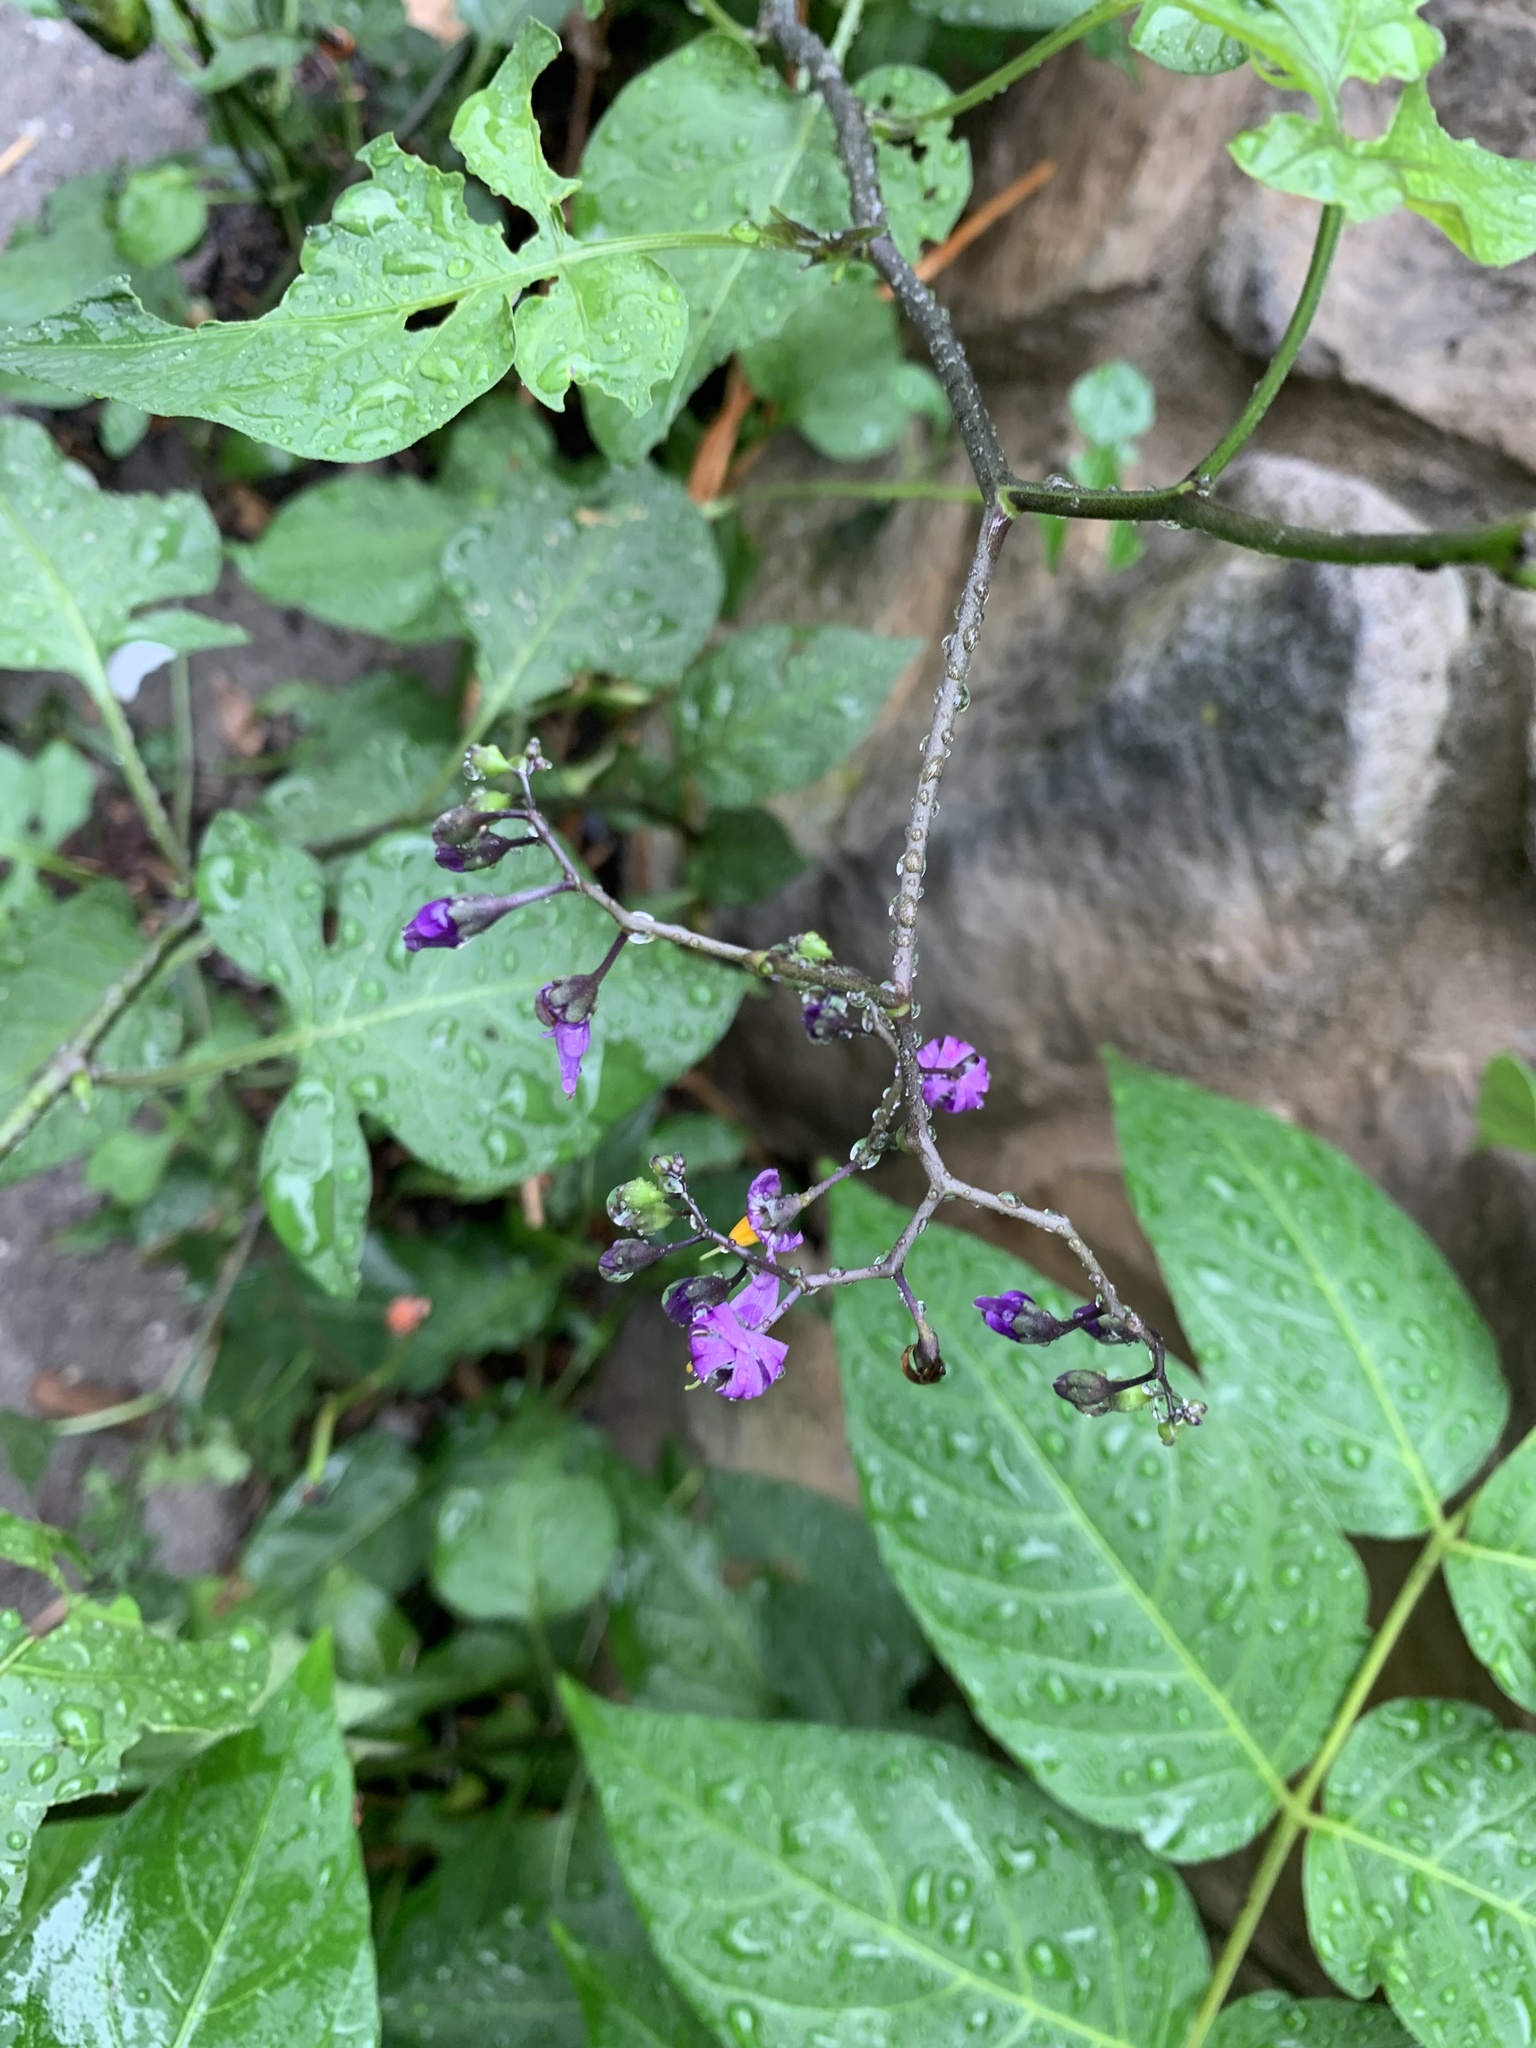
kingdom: Plantae
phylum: Tracheophyta
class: Magnoliopsida
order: Solanales
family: Solanaceae
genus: Solanum
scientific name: Solanum dulcamara
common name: Climbing nightshade
